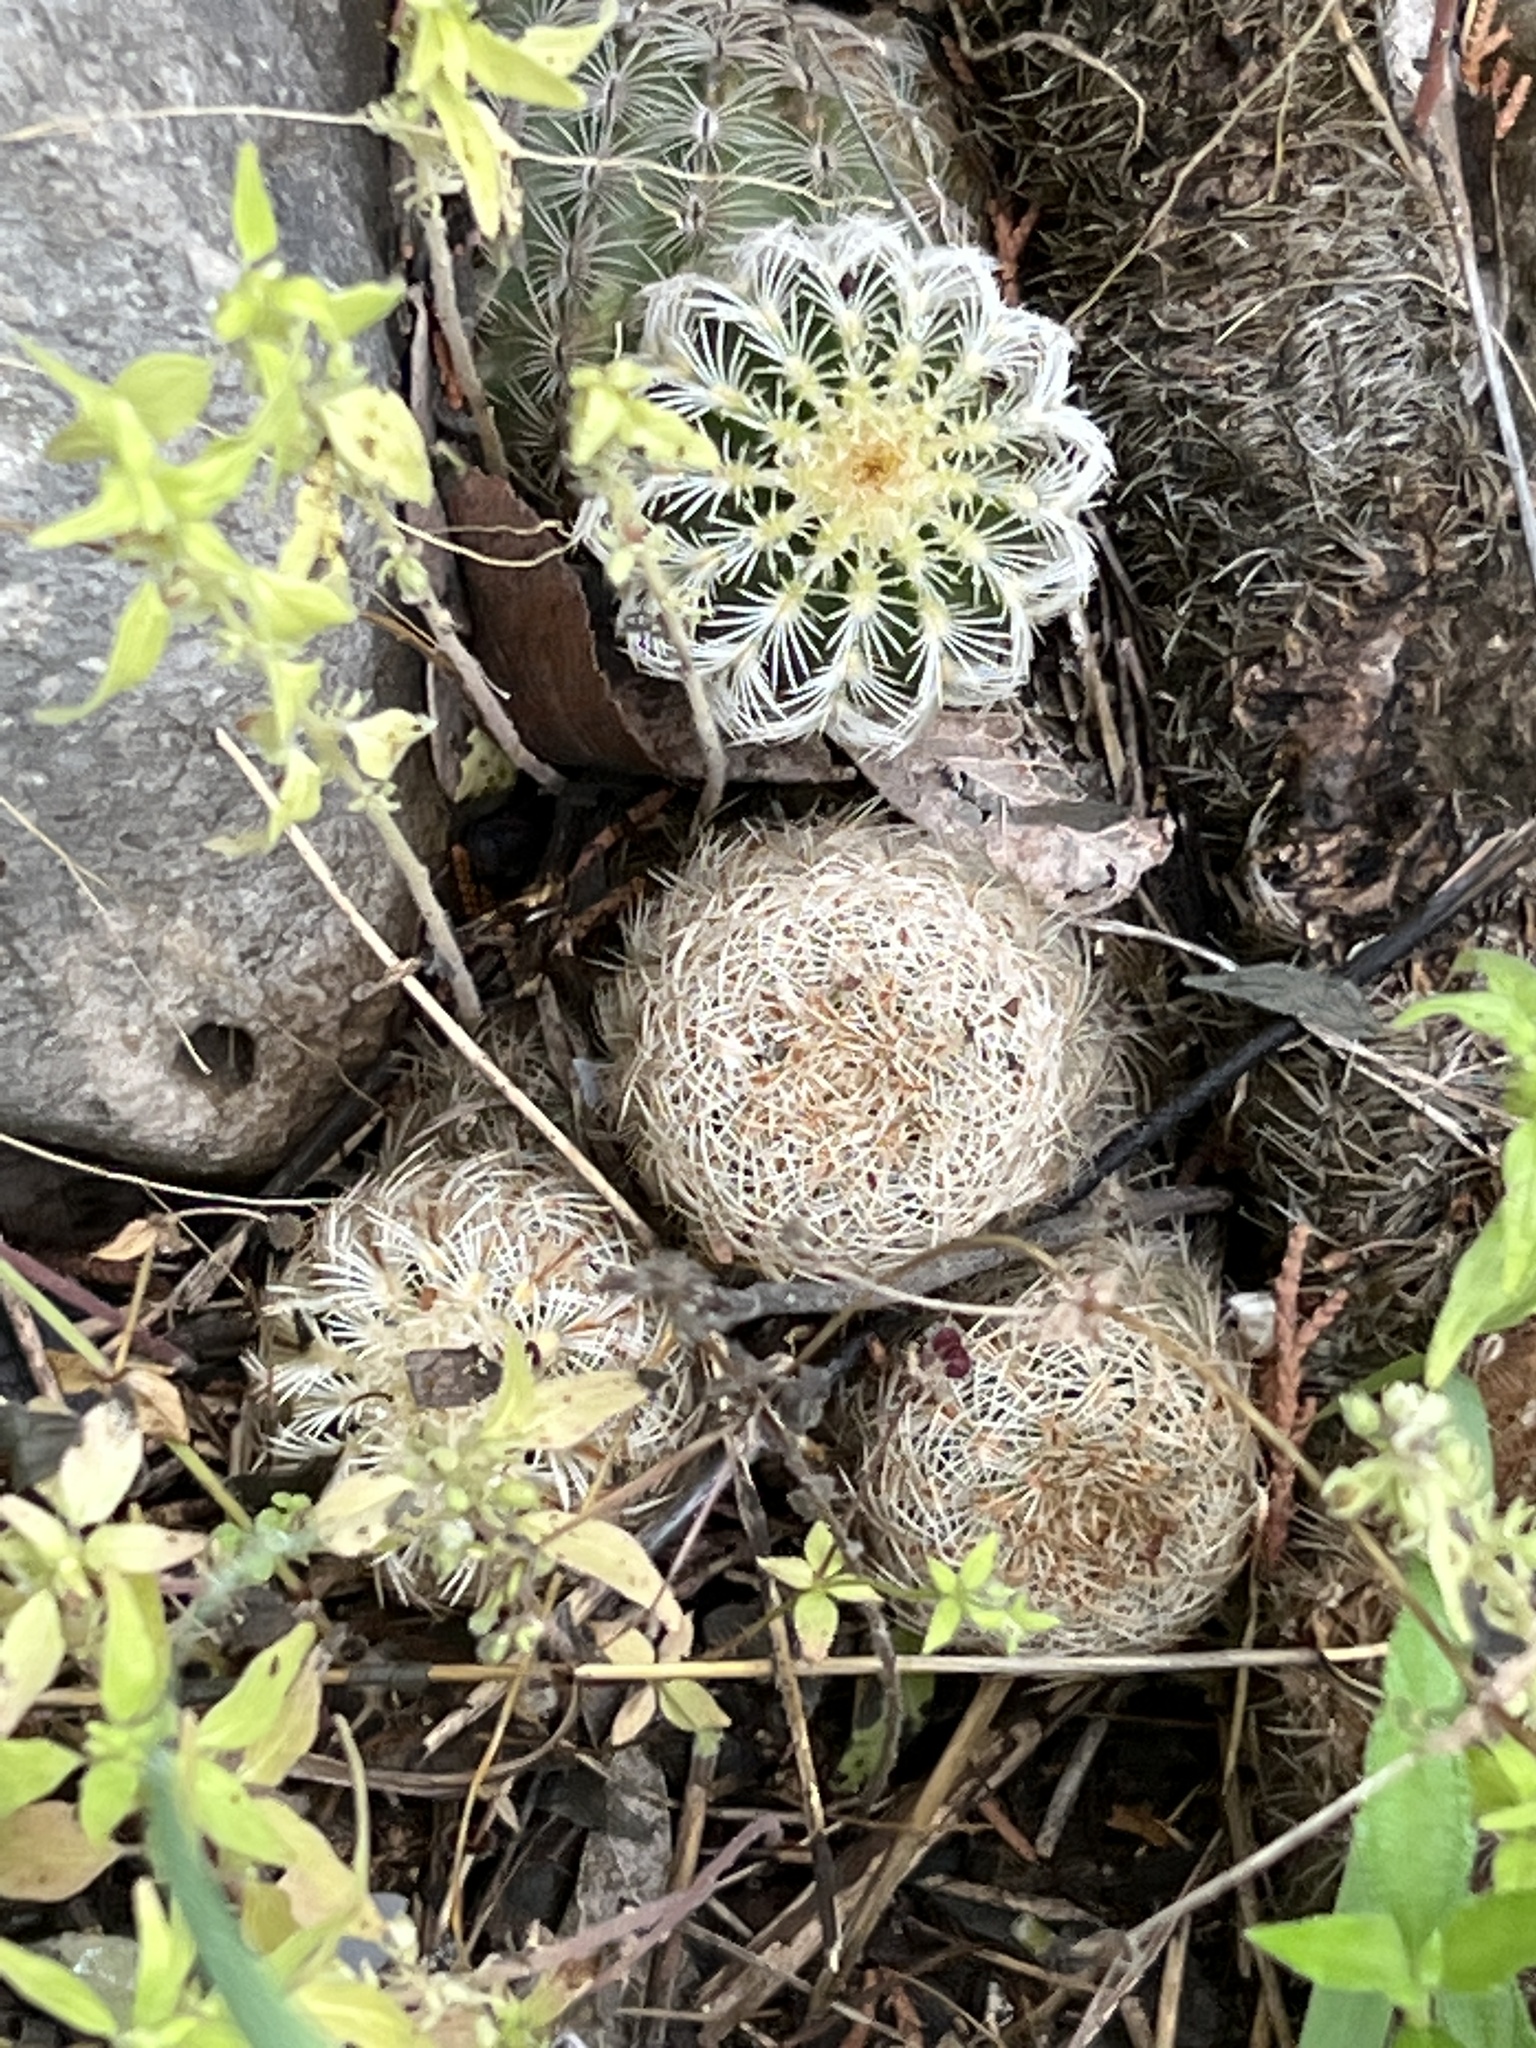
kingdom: Plantae
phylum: Tracheophyta
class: Magnoliopsida
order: Caryophyllales
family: Cactaceae
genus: Echinocereus
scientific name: Echinocereus reichenbachii
